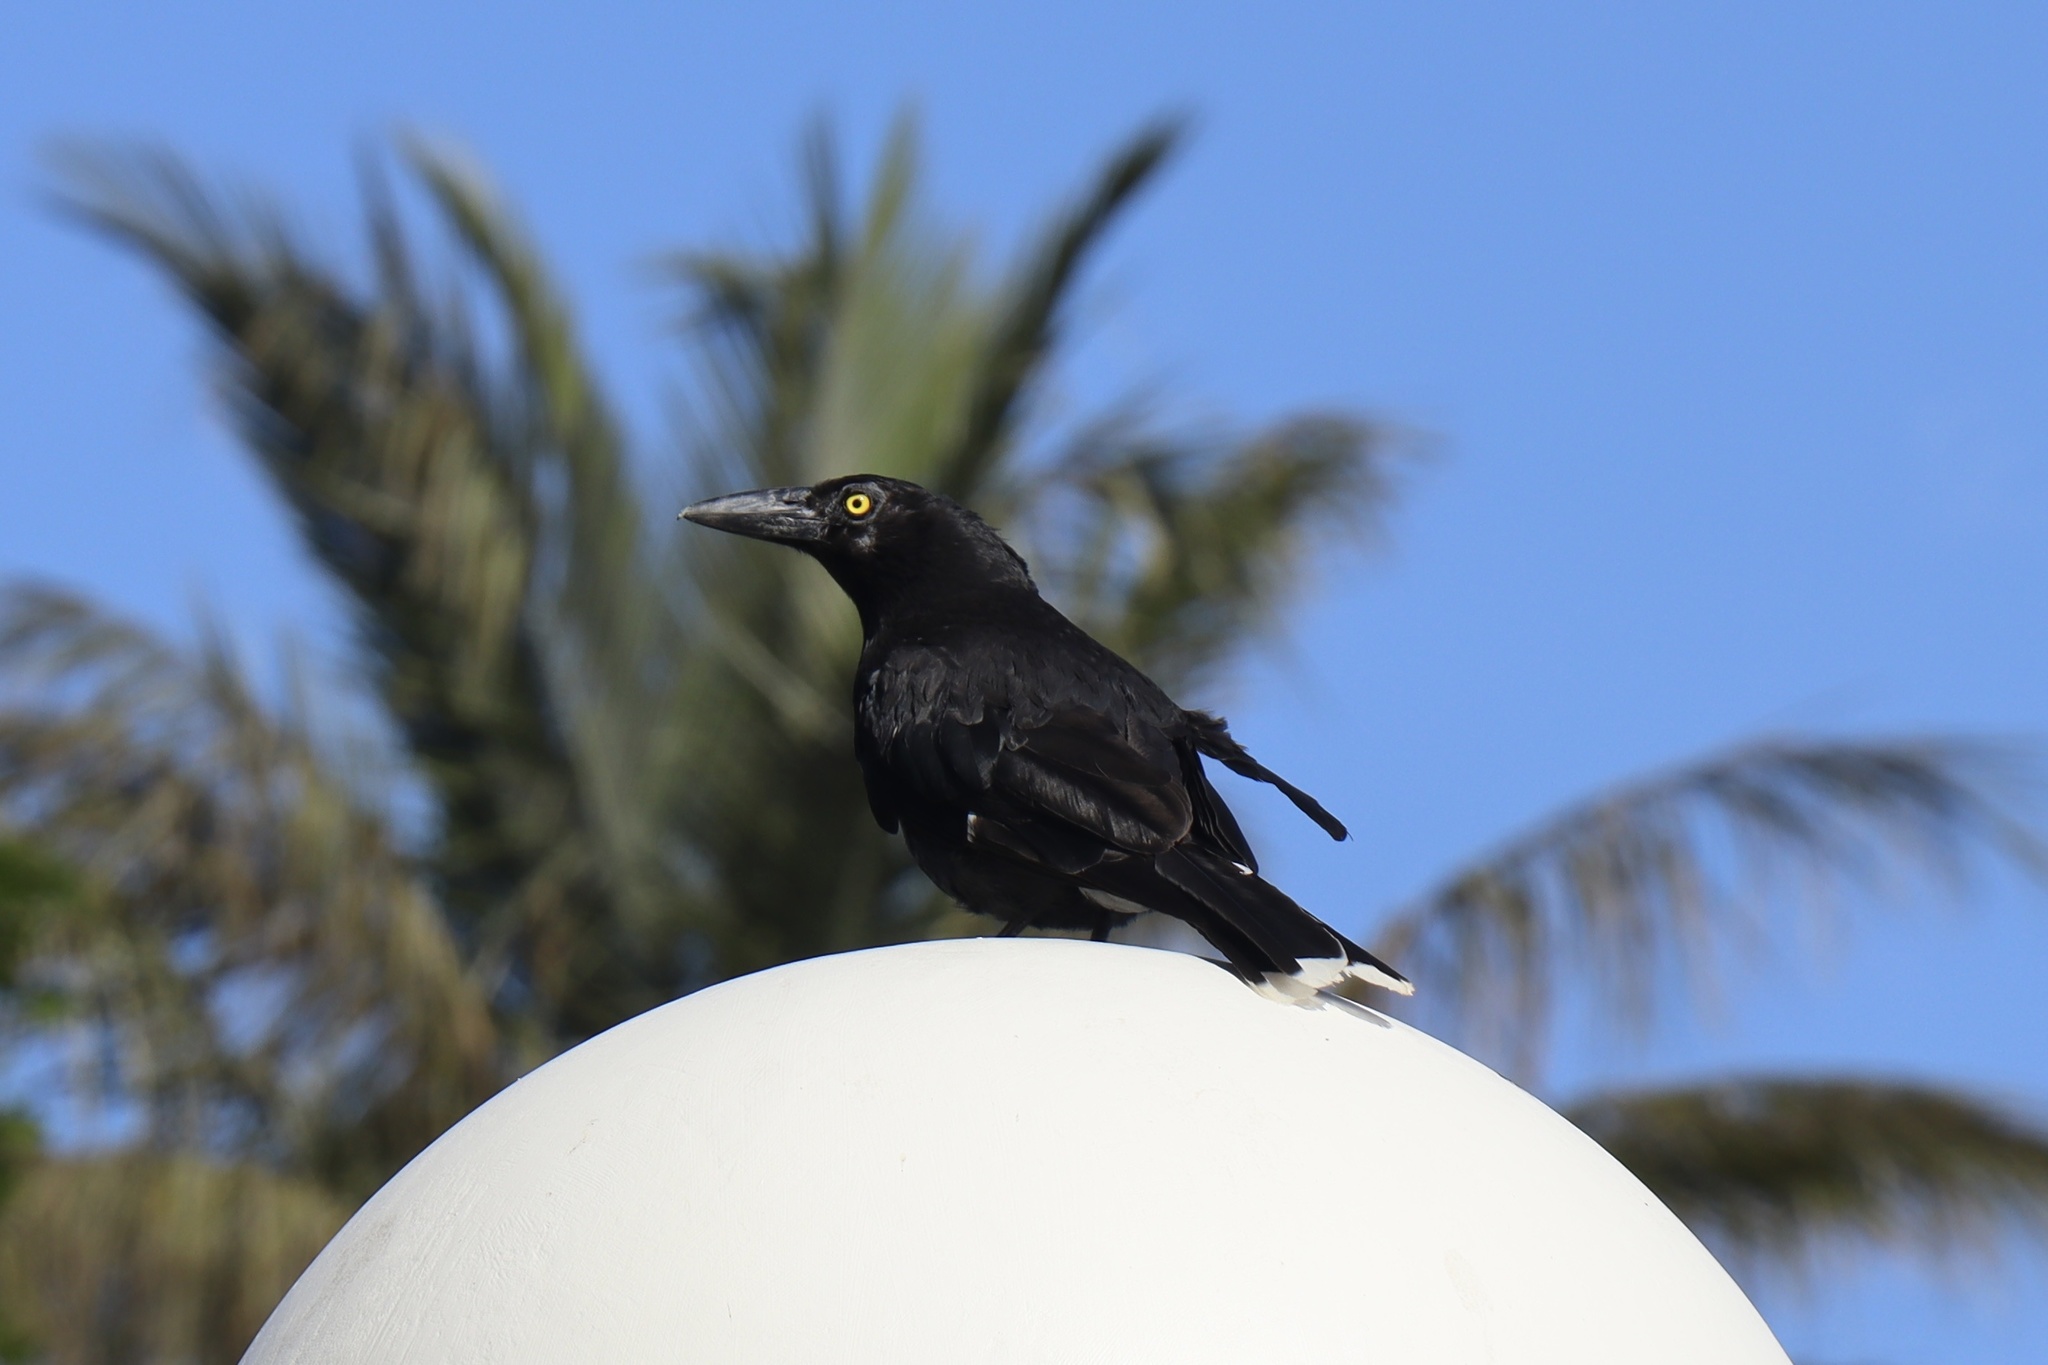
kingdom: Animalia
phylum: Chordata
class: Aves
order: Passeriformes
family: Cracticidae
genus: Strepera
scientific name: Strepera graculina
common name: Pied currawong
